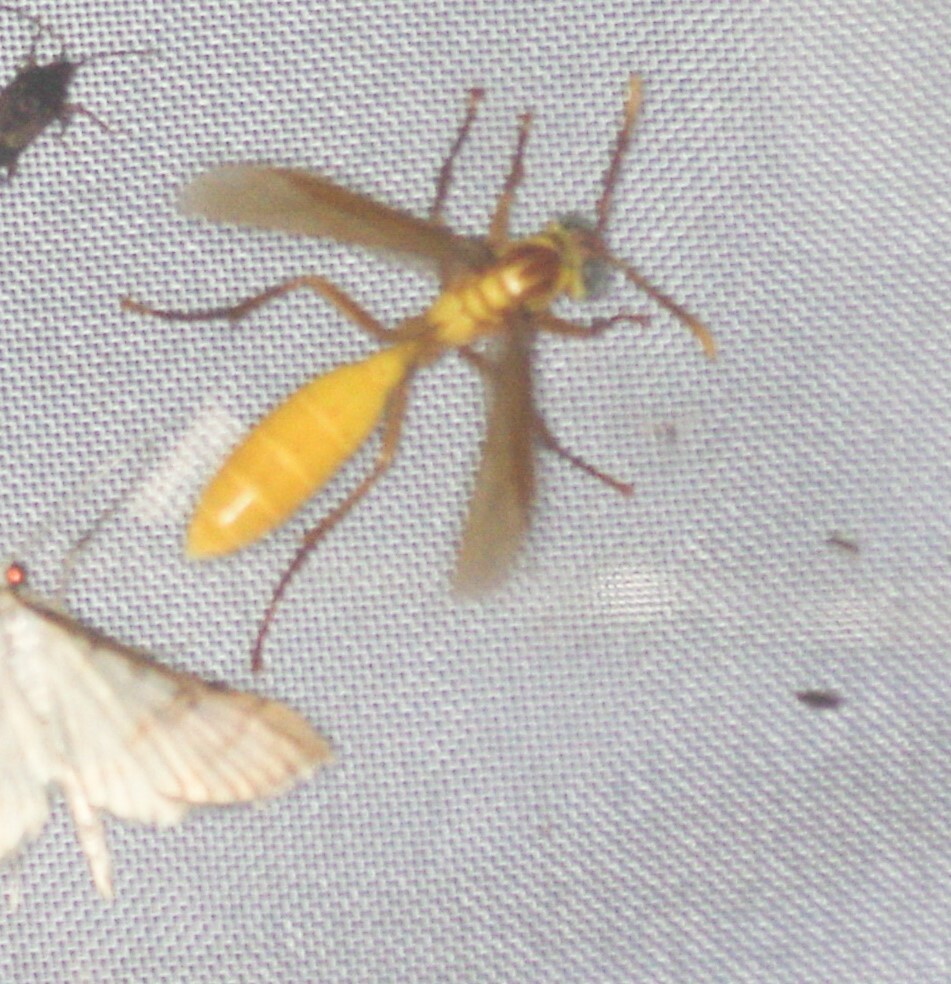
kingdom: Animalia
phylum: Arthropoda
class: Insecta
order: Hymenoptera
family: Vespidae
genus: Apoica
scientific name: Apoica flavissima
